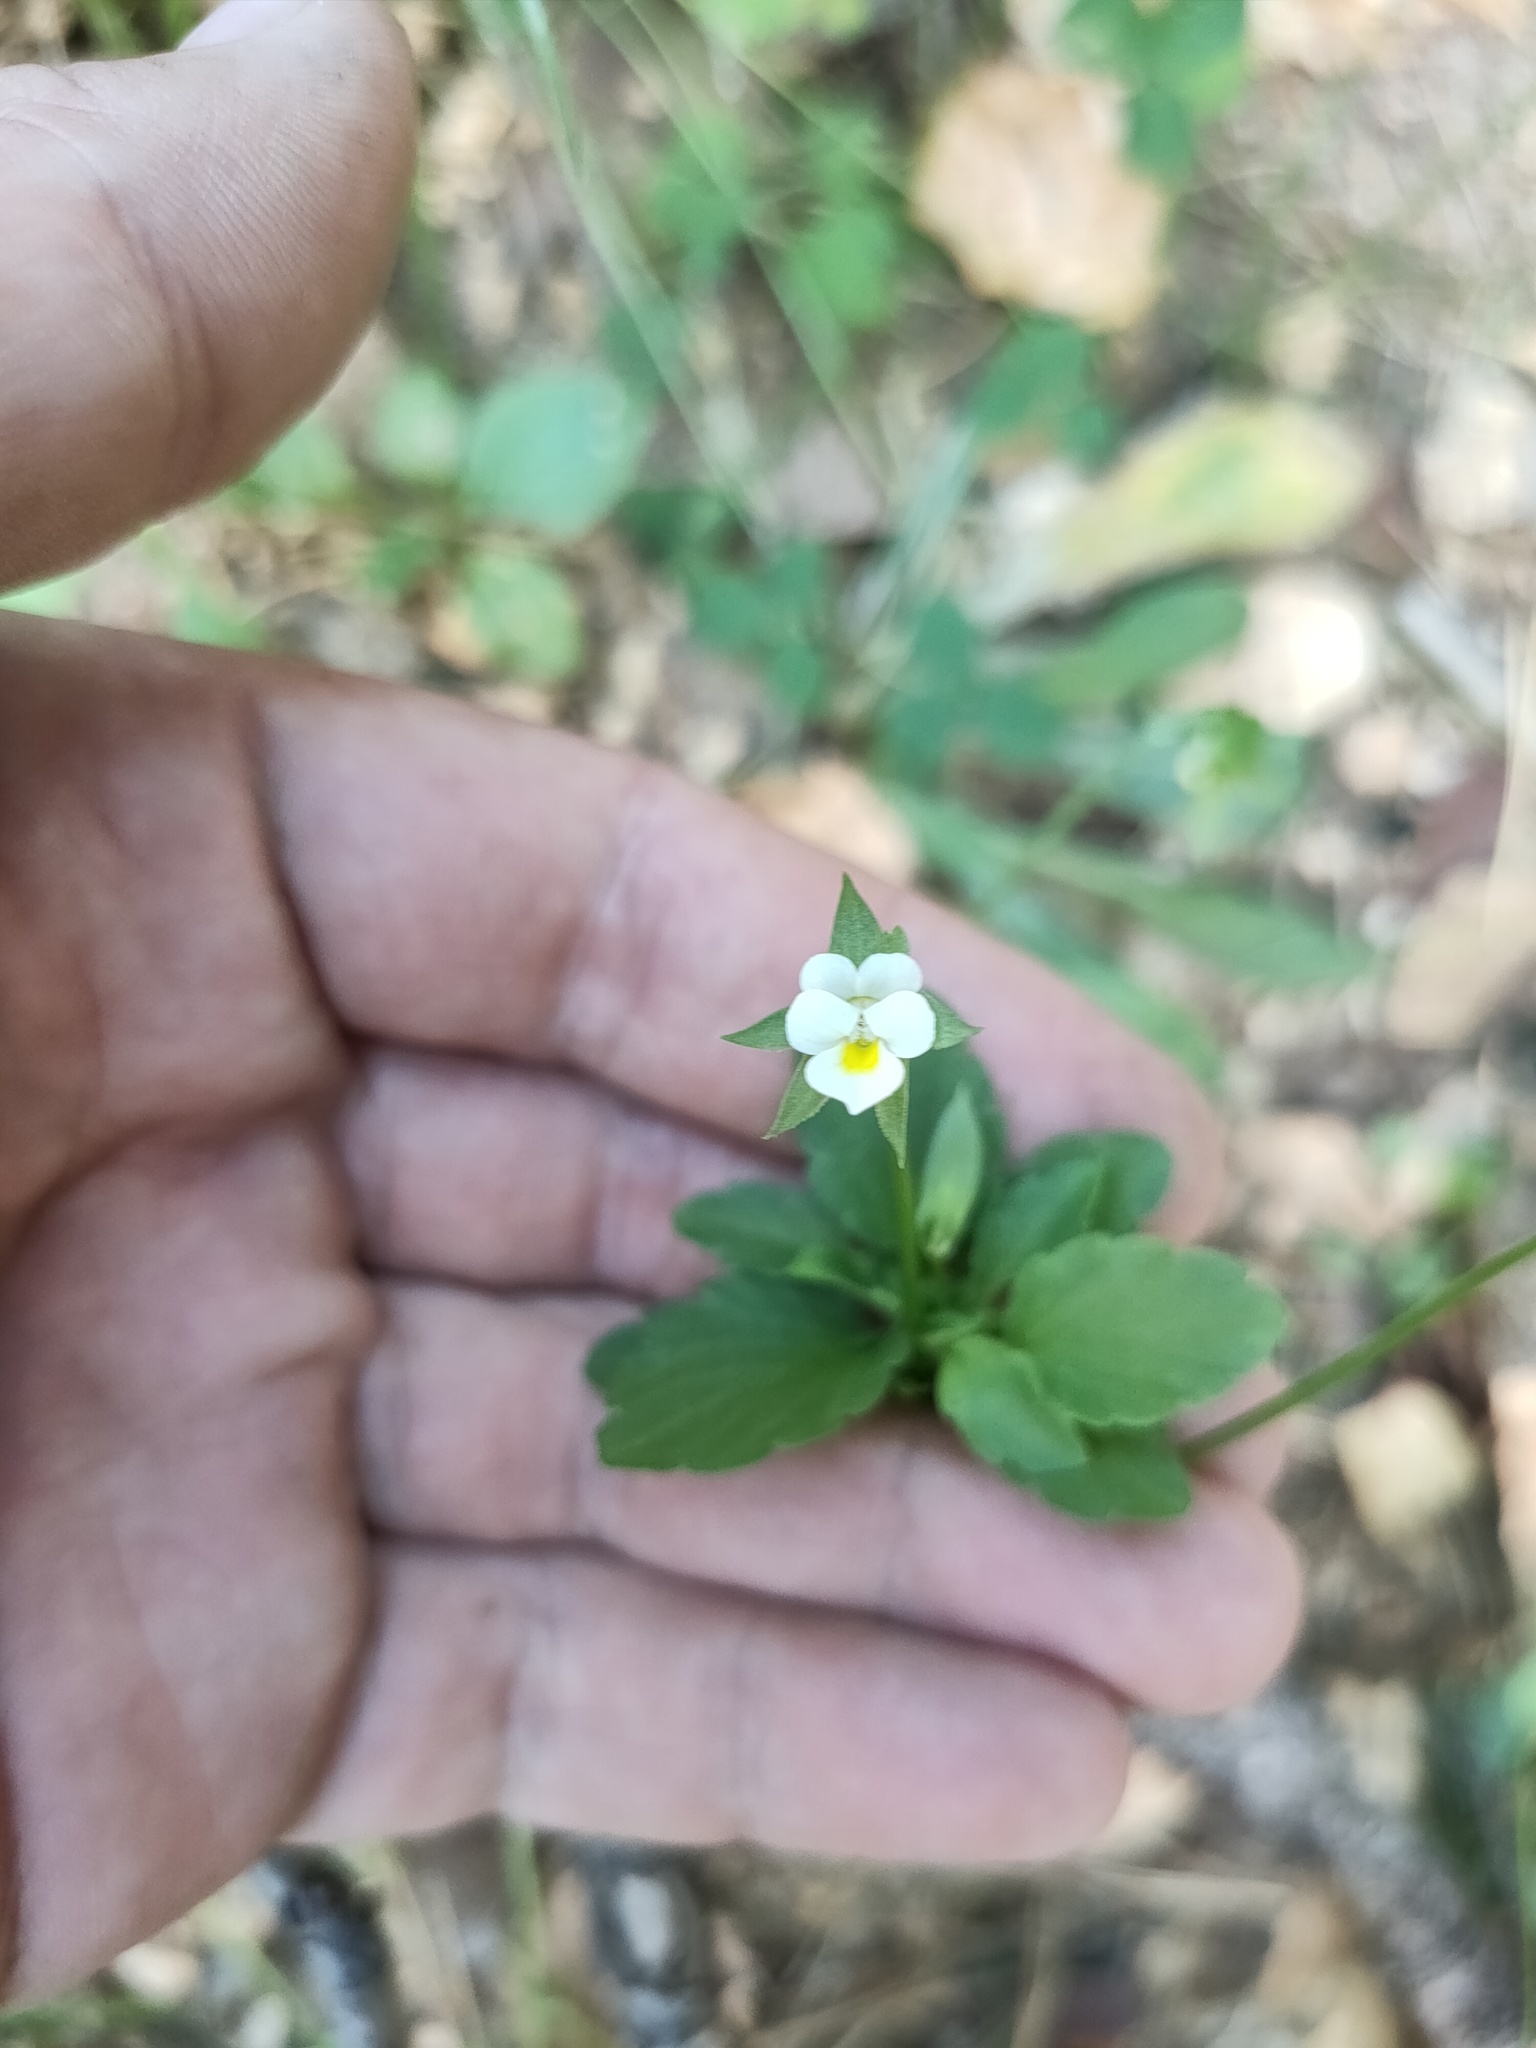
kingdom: Plantae
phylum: Tracheophyta
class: Magnoliopsida
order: Malpighiales
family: Violaceae
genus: Viola
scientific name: Viola arvensis
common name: Field pansy
